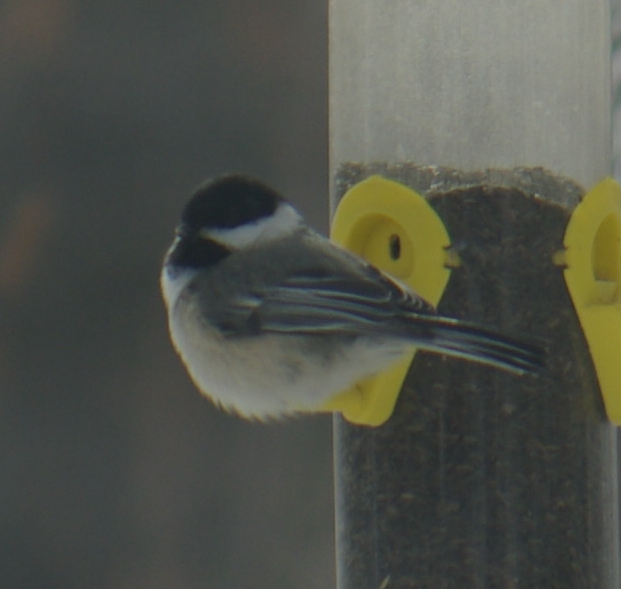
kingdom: Animalia
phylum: Chordata
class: Aves
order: Passeriformes
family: Paridae
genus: Poecile
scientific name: Poecile atricapillus
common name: Black-capped chickadee
